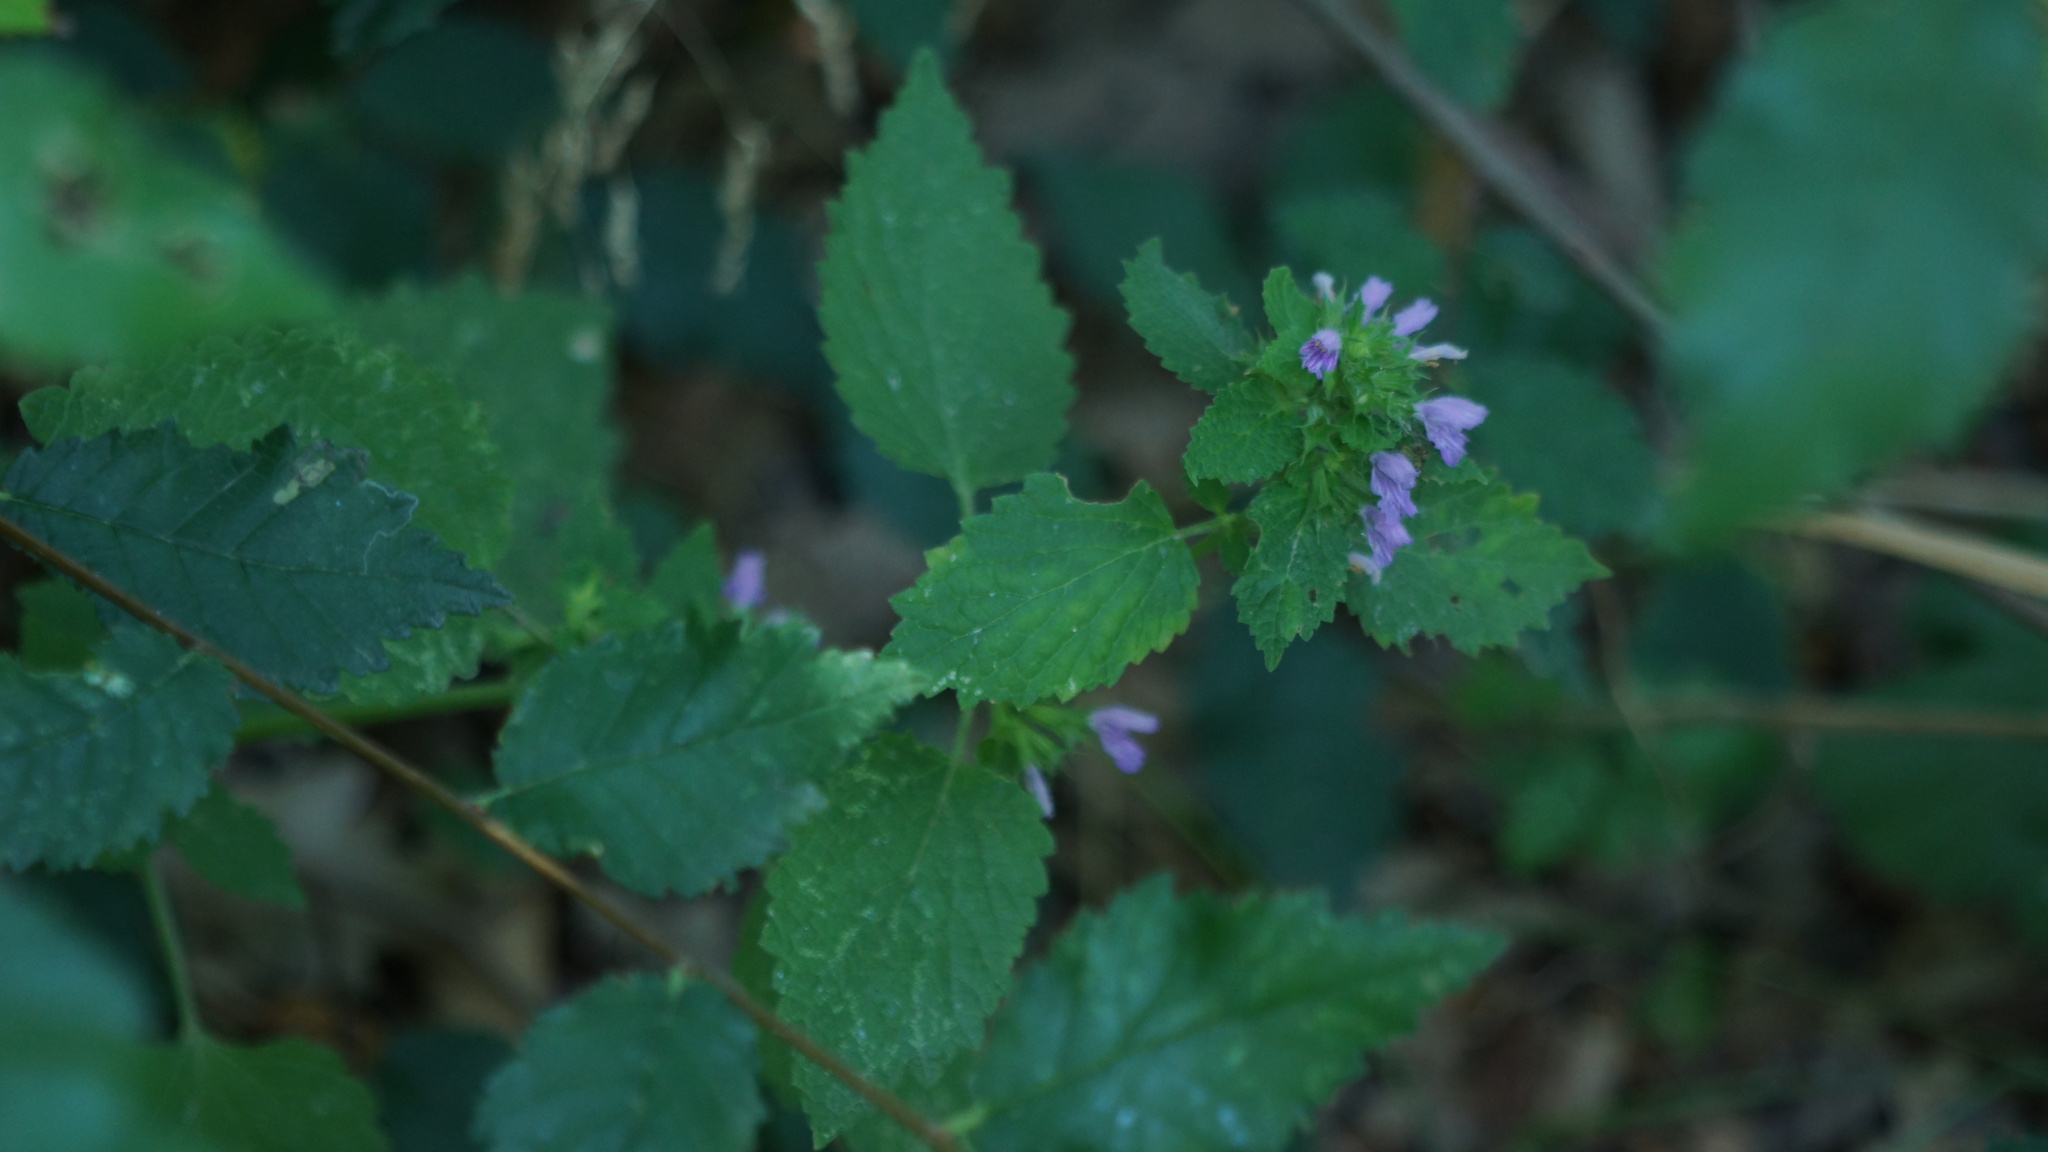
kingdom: Plantae
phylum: Tracheophyta
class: Magnoliopsida
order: Lamiales
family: Lamiaceae
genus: Ballota
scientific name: Ballota nigra
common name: Black horehound
